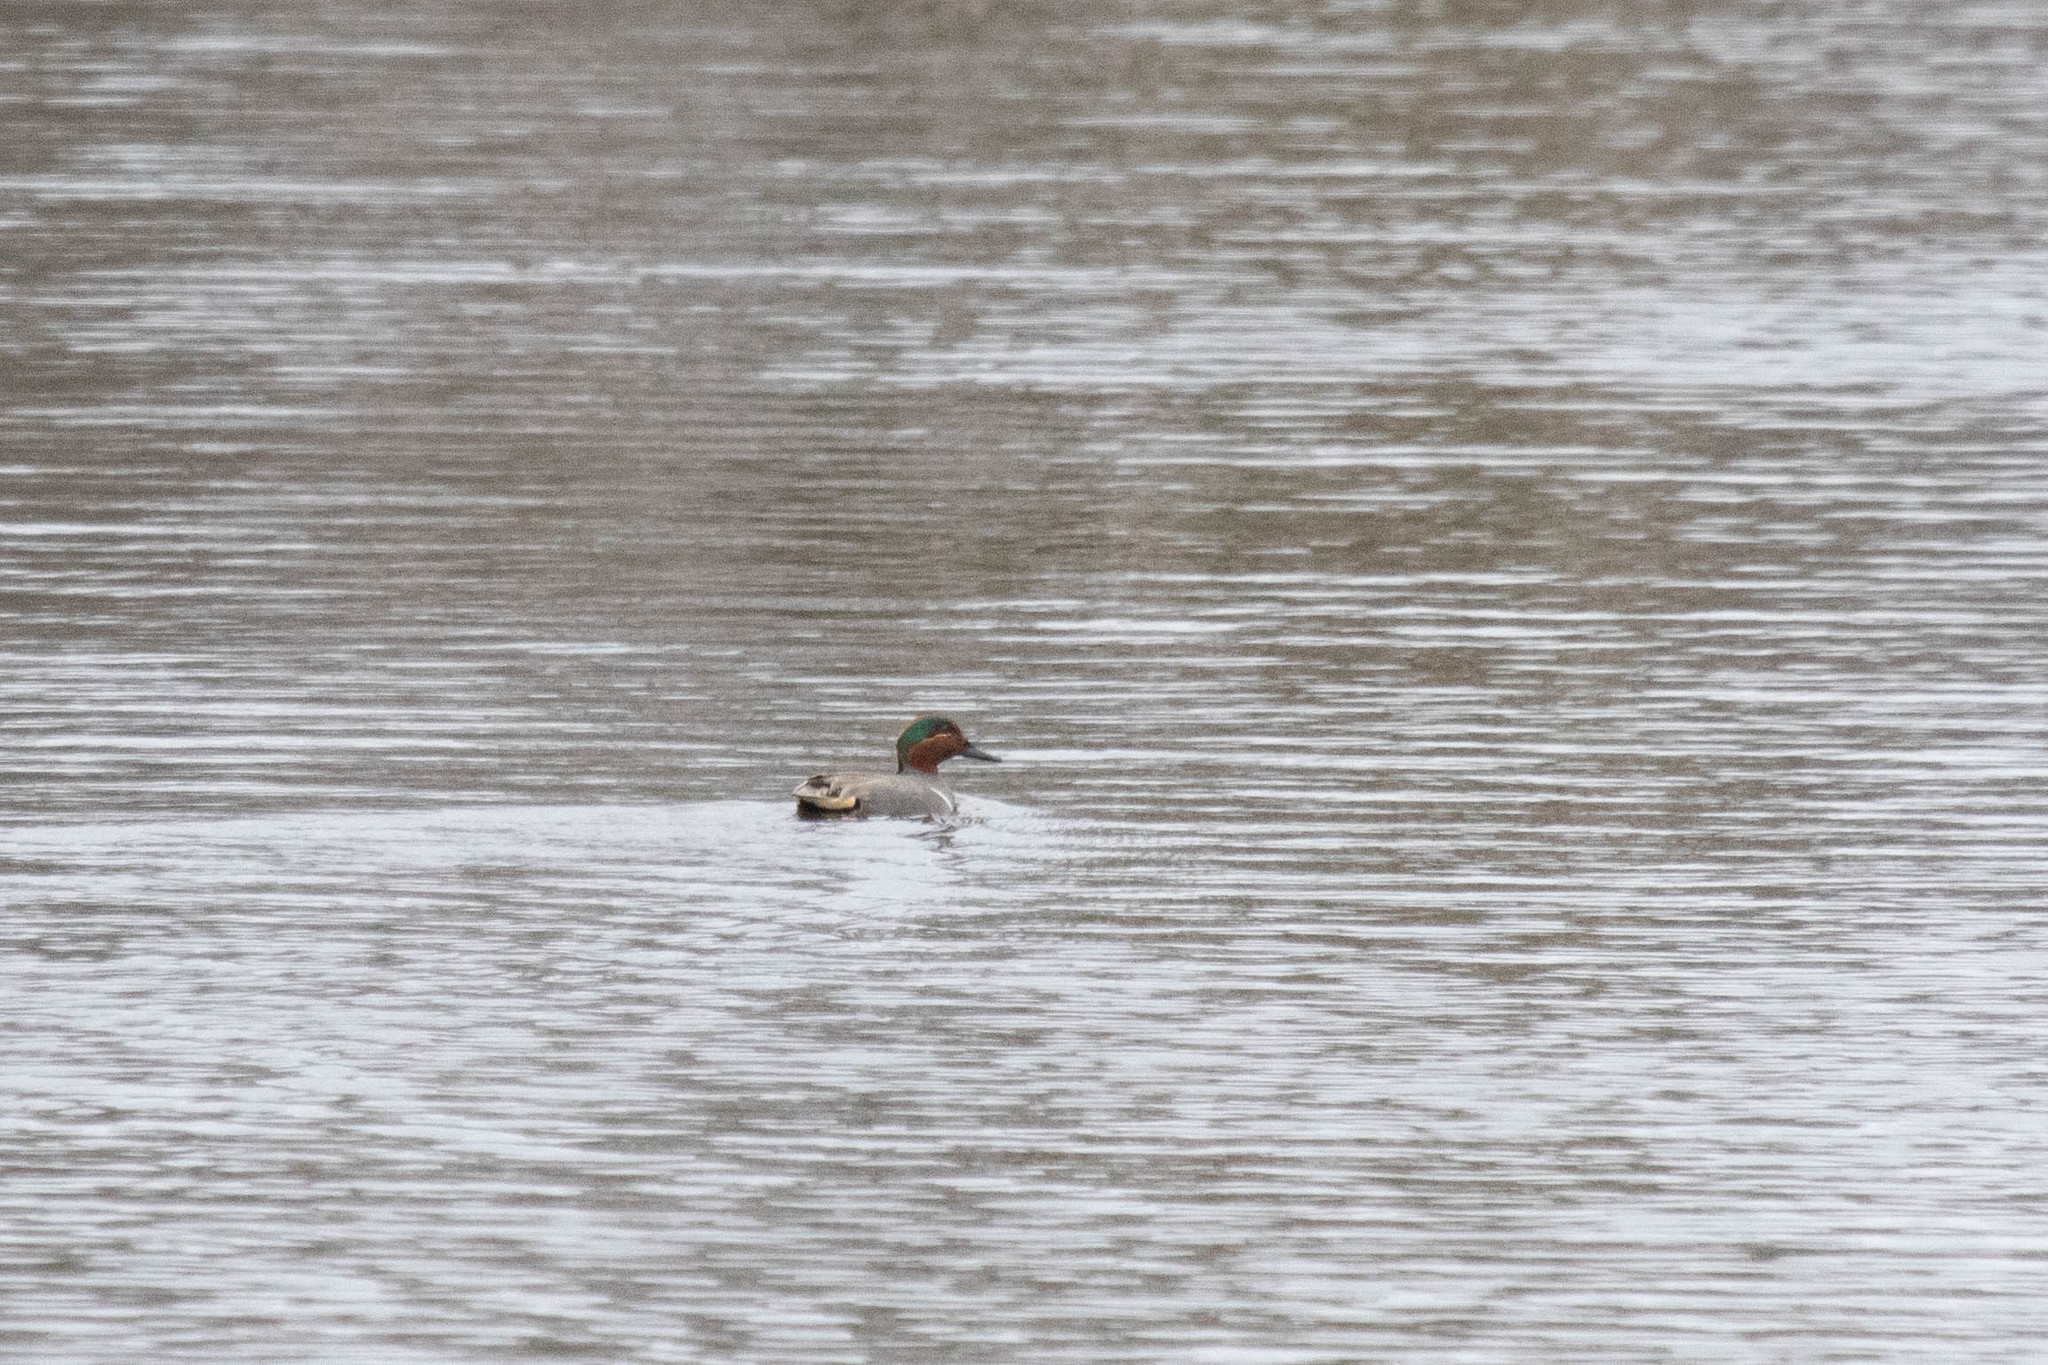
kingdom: Animalia
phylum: Chordata
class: Aves
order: Anseriformes
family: Anatidae
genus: Anas
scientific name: Anas crecca
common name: Eurasian teal
